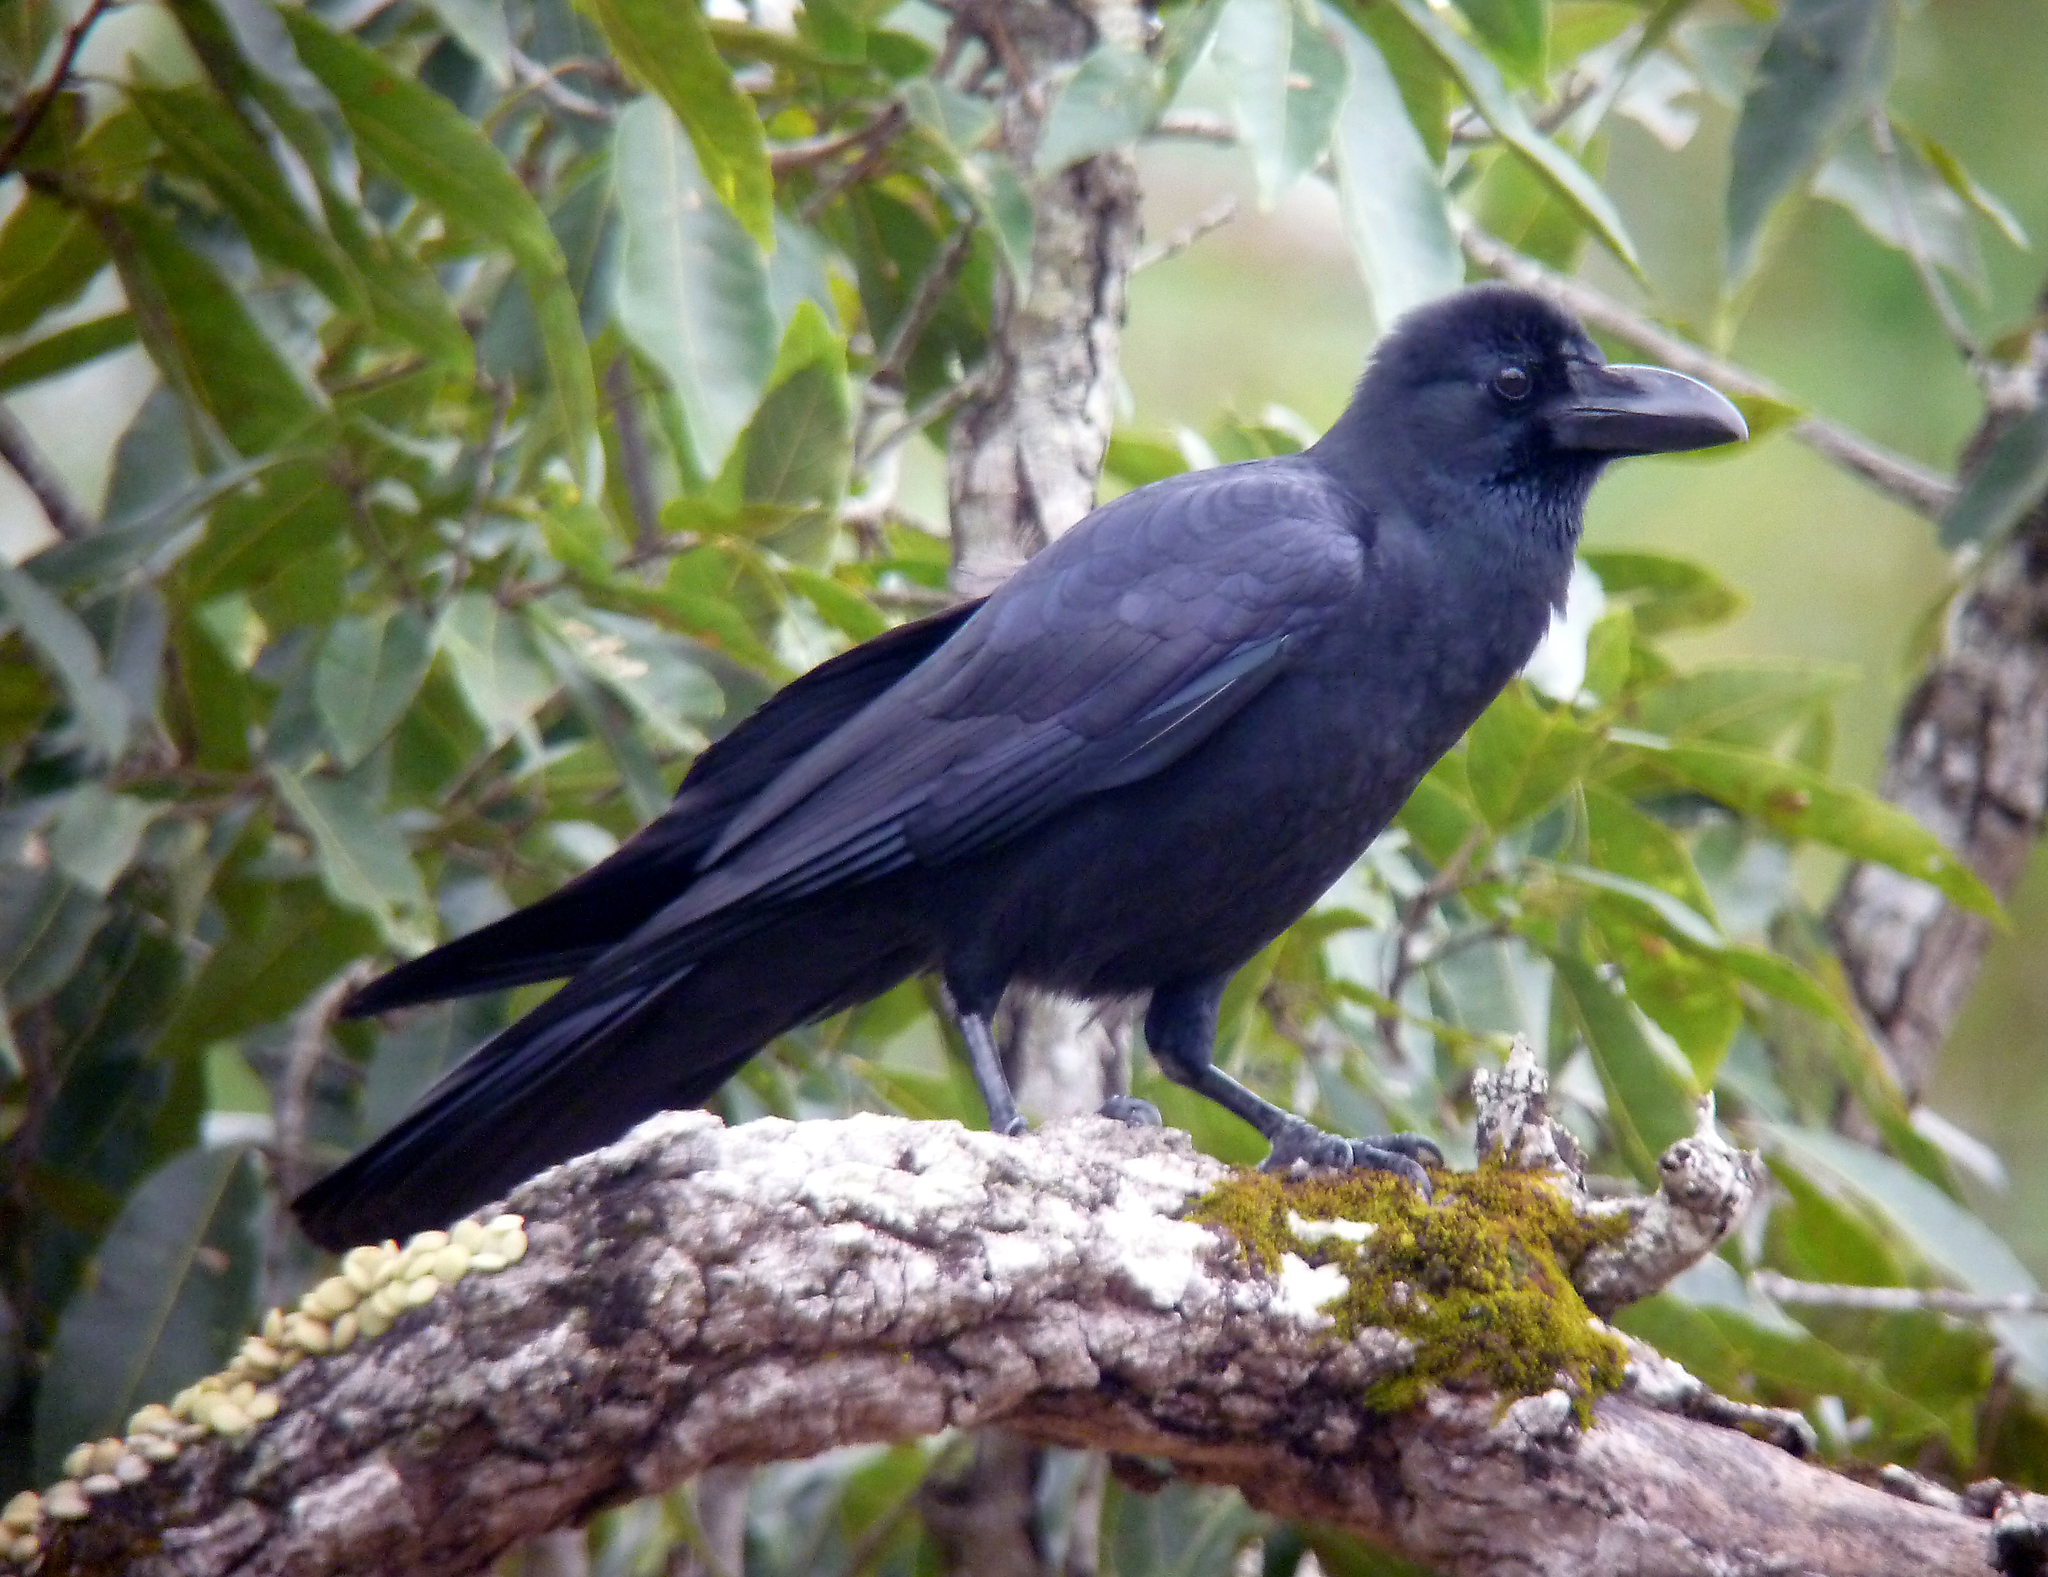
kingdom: Animalia
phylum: Chordata
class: Aves
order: Passeriformes
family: Corvidae
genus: Corvus
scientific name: Corvus macrorhynchos
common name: Large-billed crow
